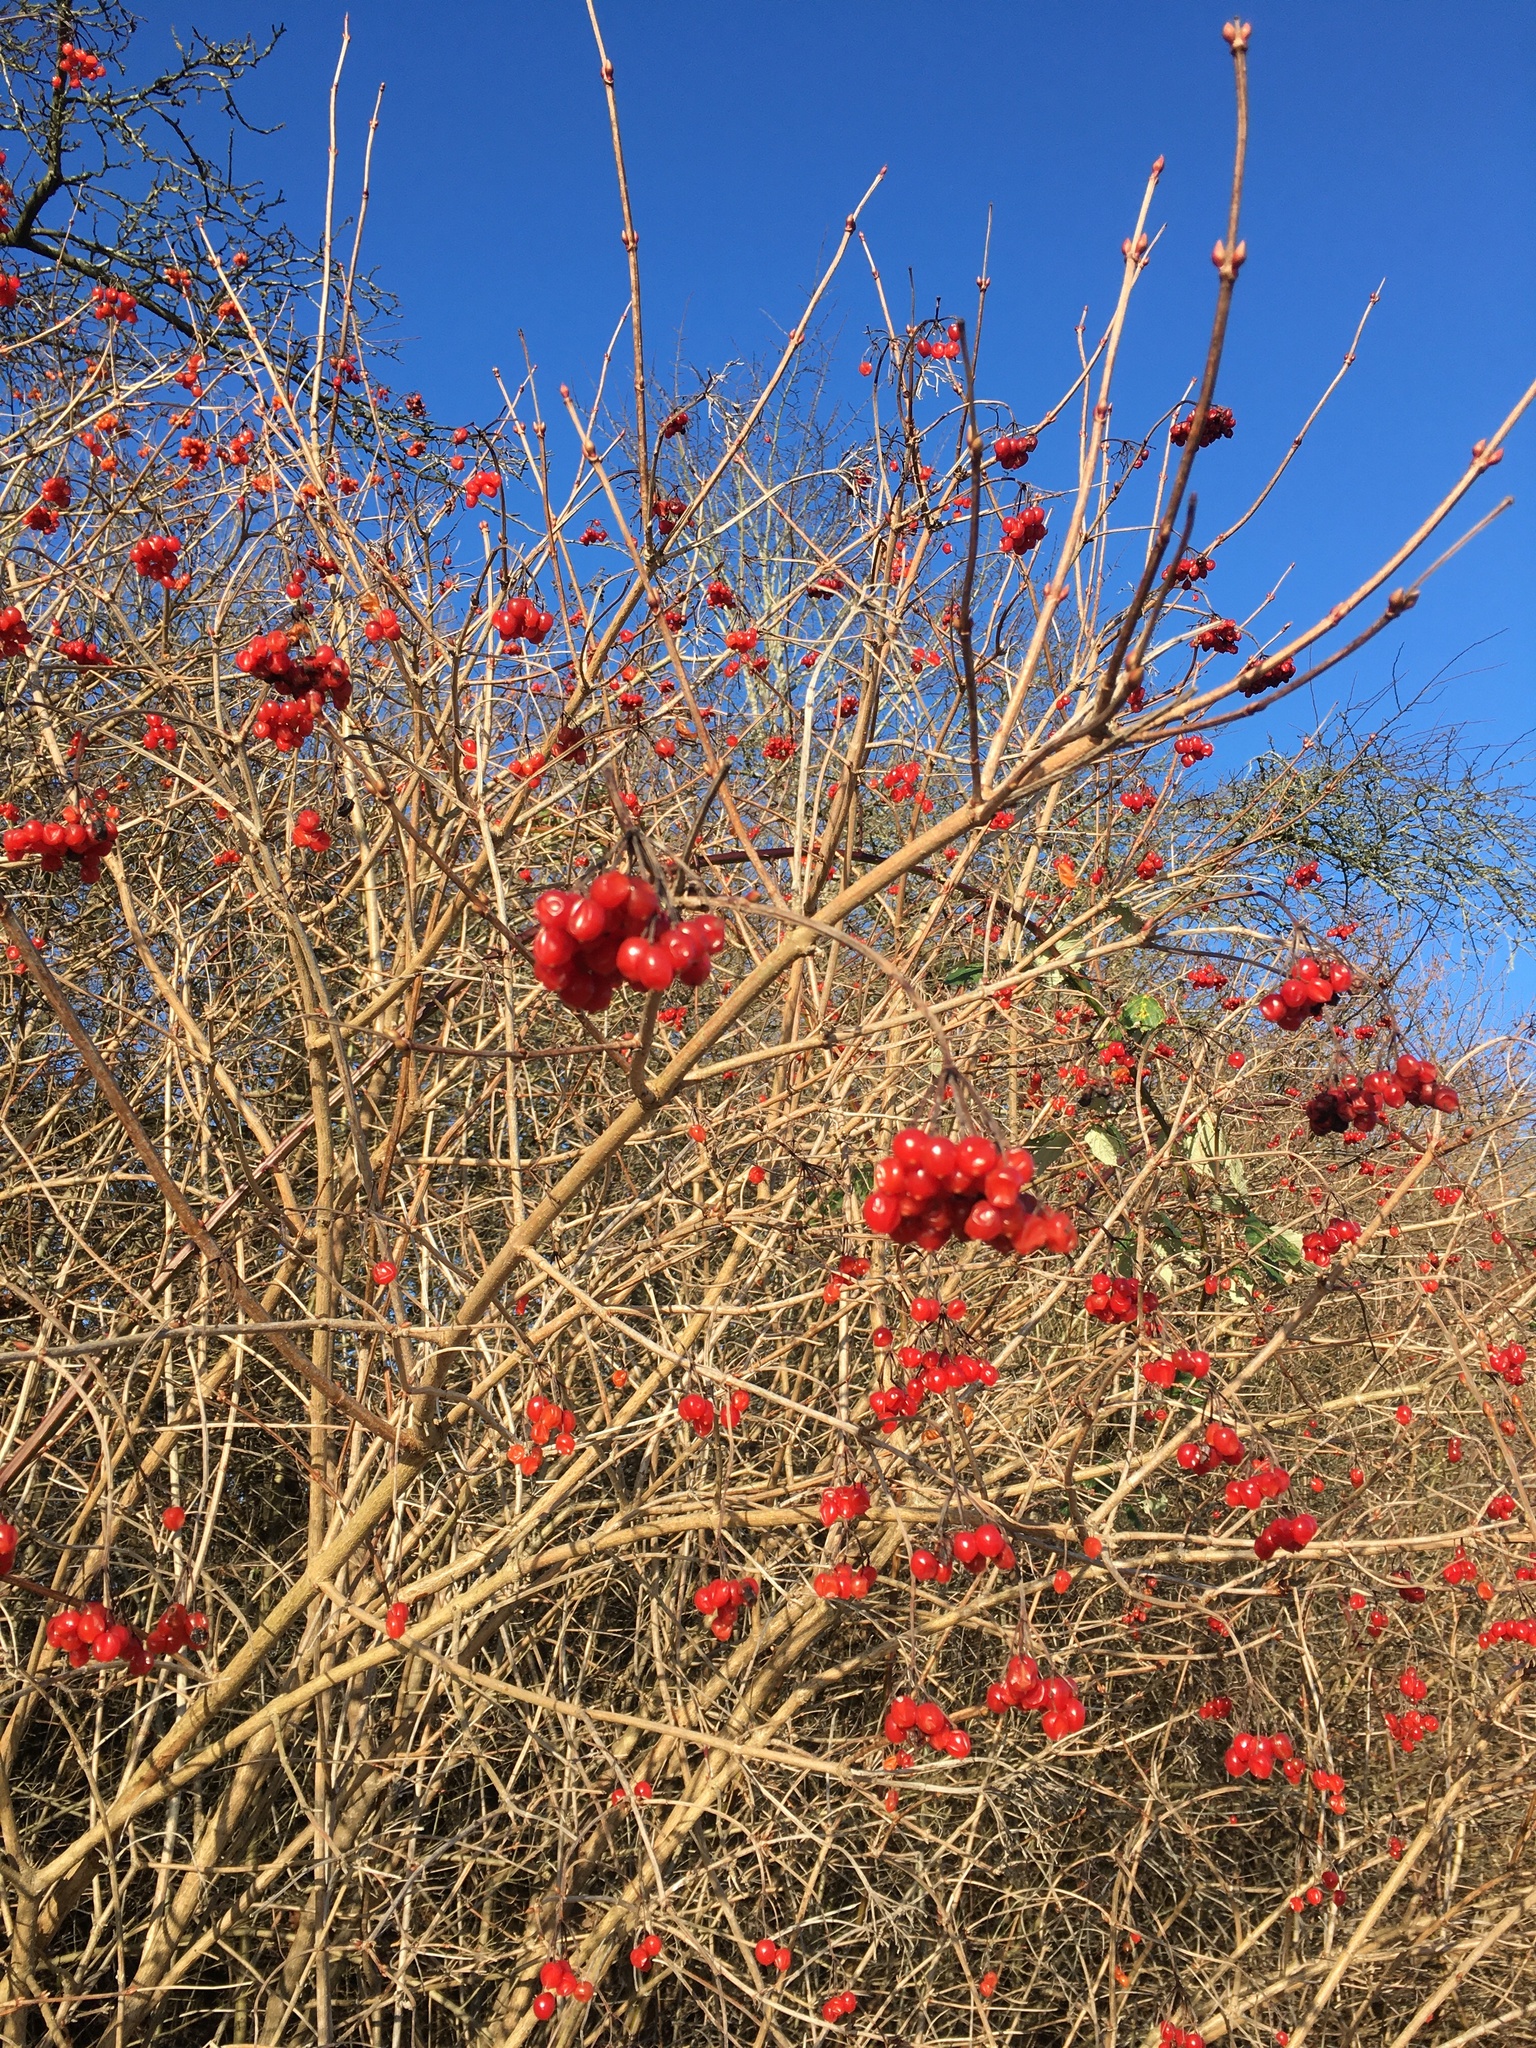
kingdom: Plantae
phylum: Tracheophyta
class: Magnoliopsida
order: Dipsacales
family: Viburnaceae
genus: Viburnum
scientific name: Viburnum opulus
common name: Guelder-rose
